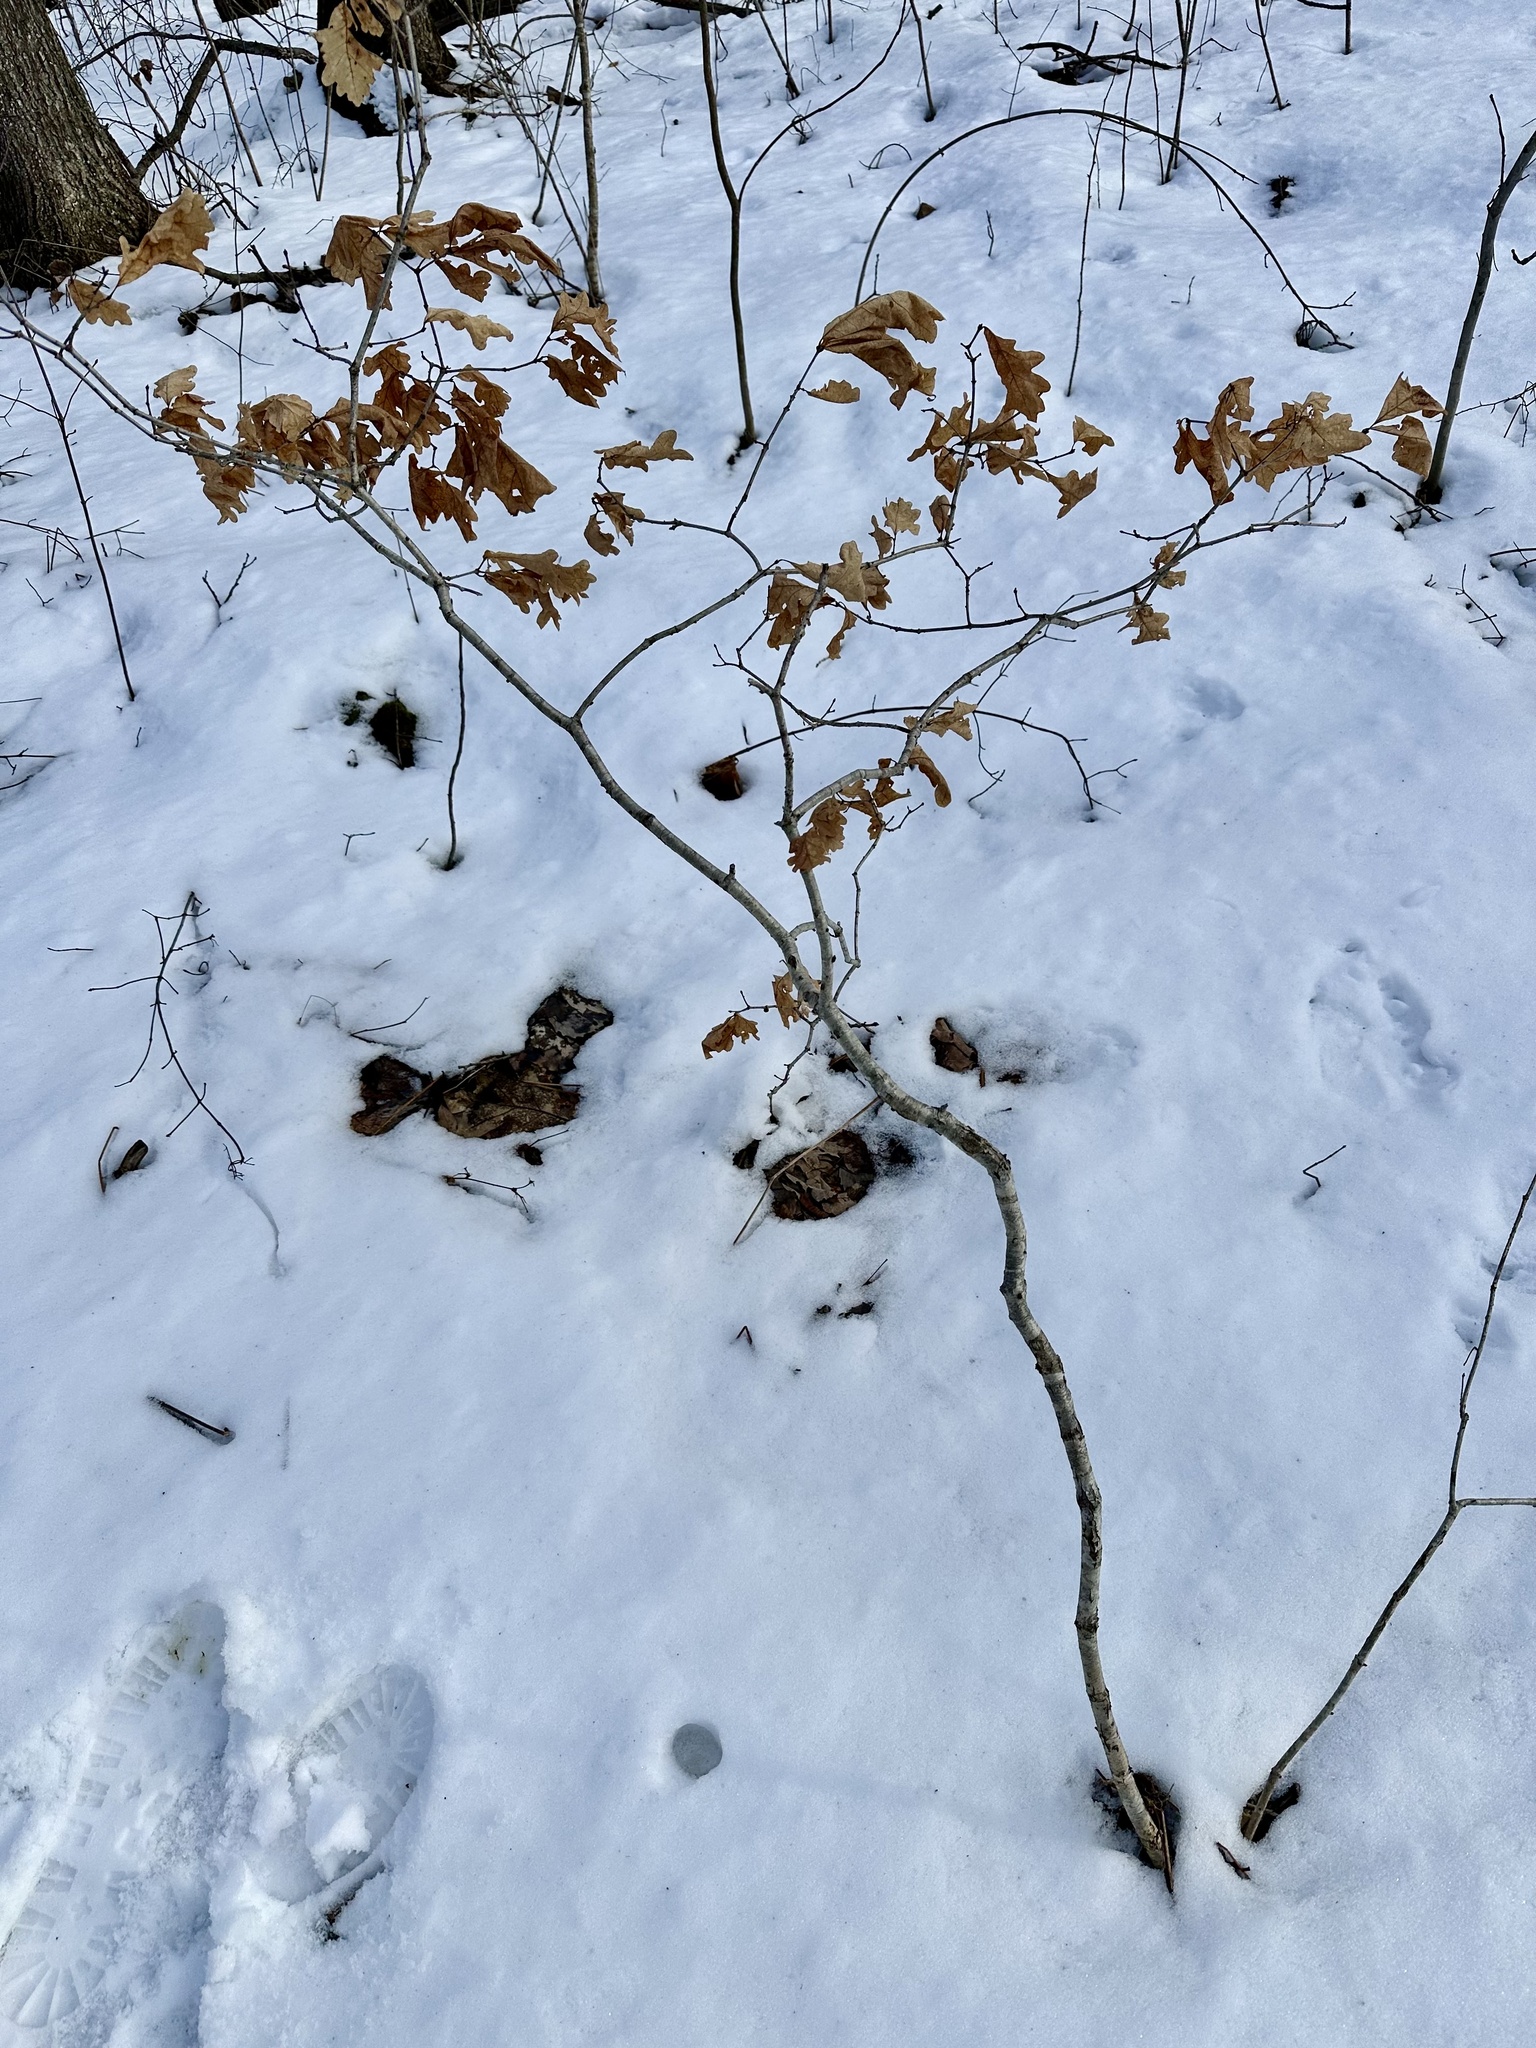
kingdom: Plantae
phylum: Tracheophyta
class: Magnoliopsida
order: Fagales
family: Fagaceae
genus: Quercus
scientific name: Quercus alba
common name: White oak
